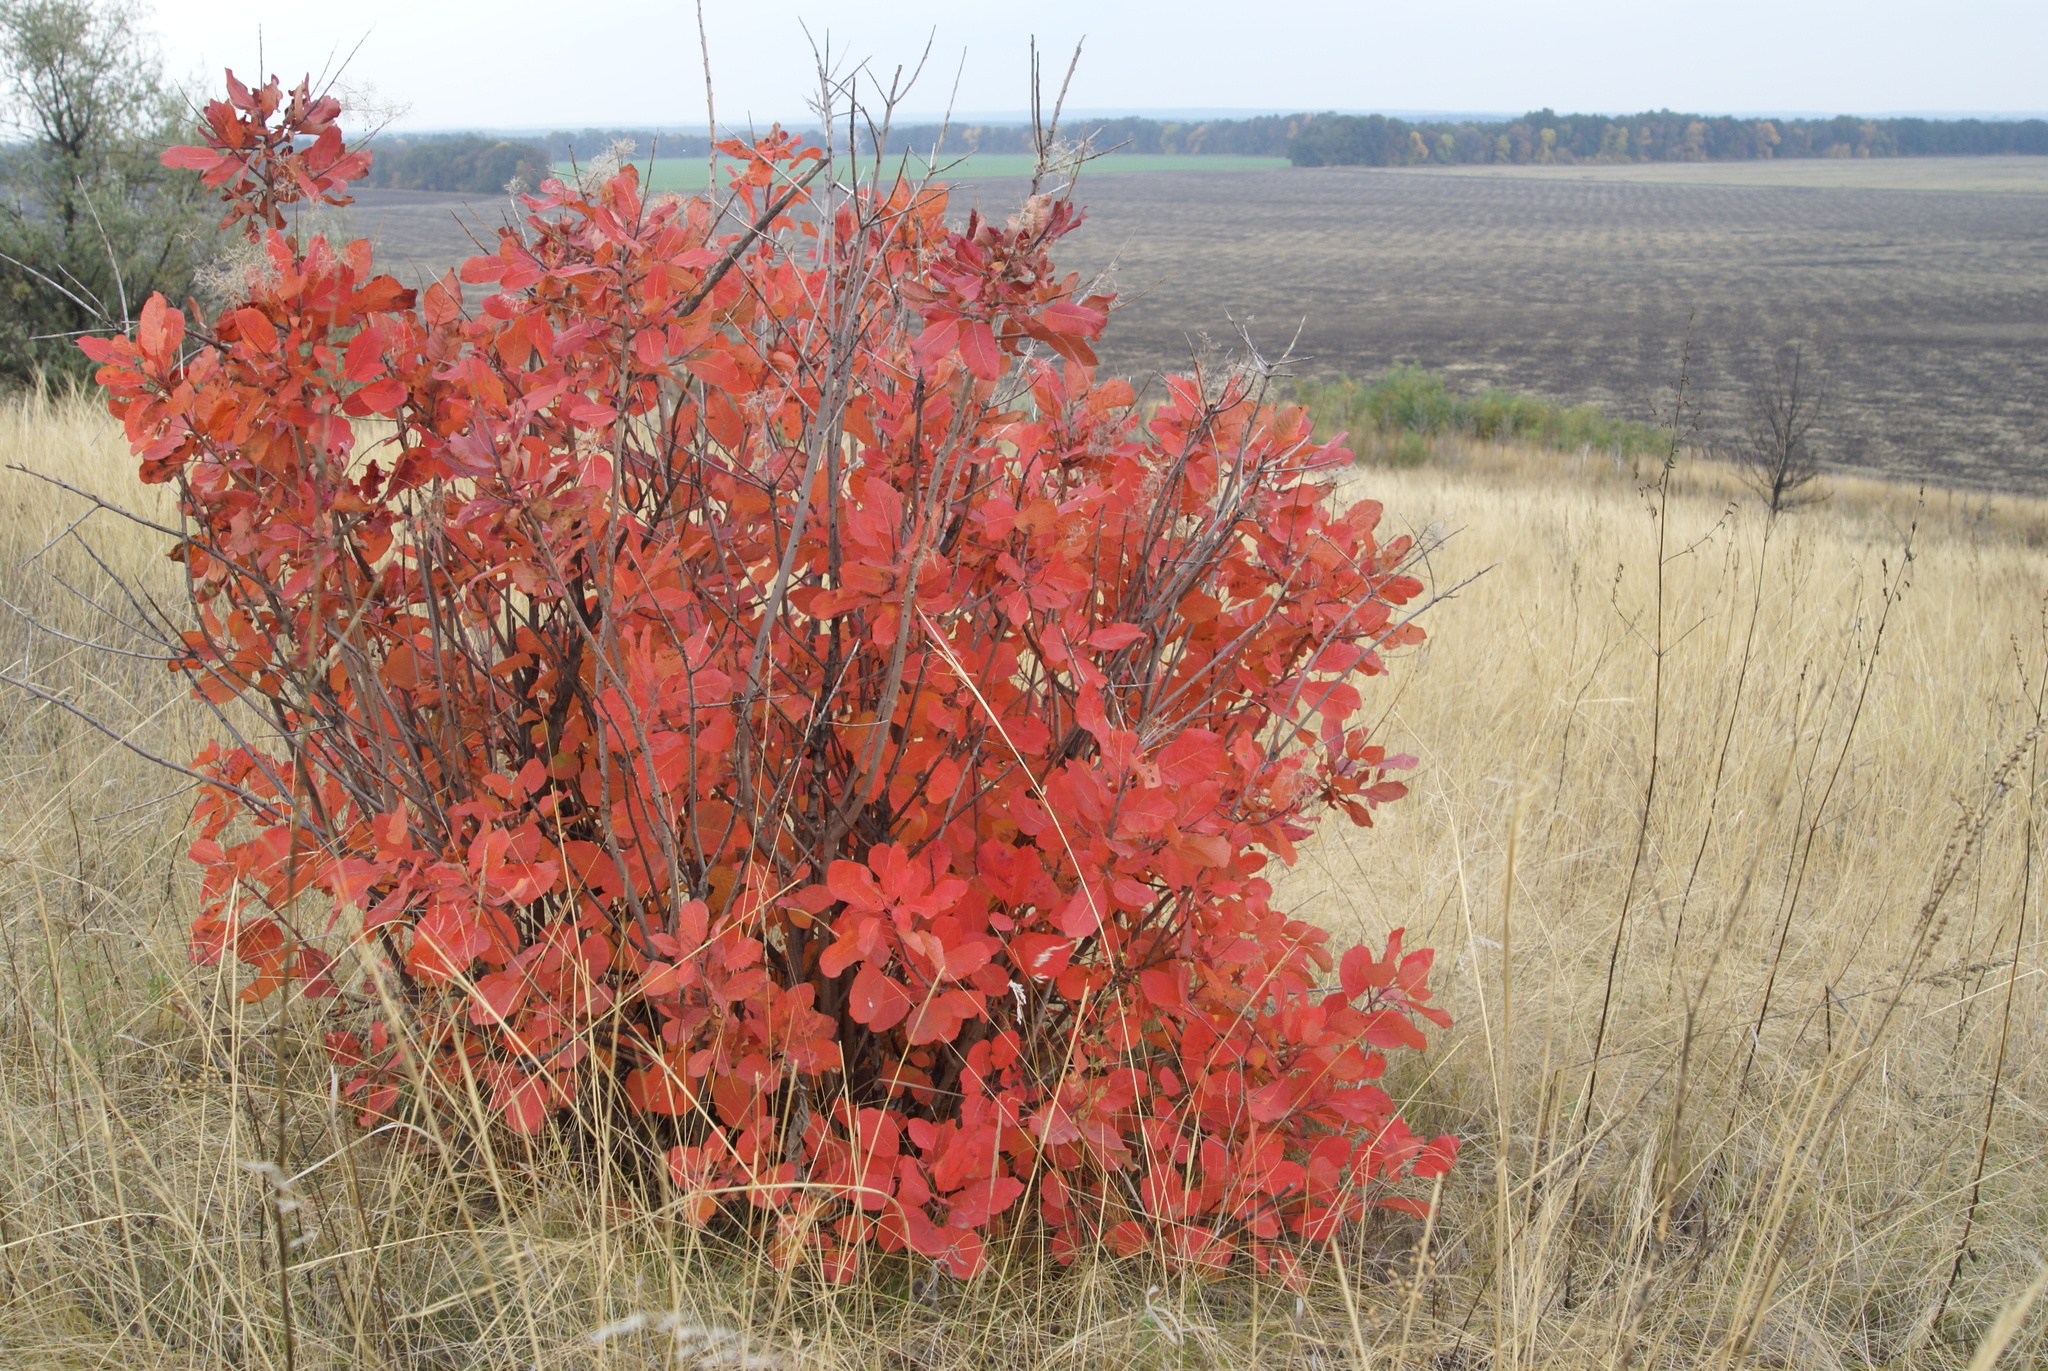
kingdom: Plantae
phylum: Tracheophyta
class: Magnoliopsida
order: Sapindales
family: Anacardiaceae
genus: Cotinus
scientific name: Cotinus coggygria
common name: Smoke-tree
